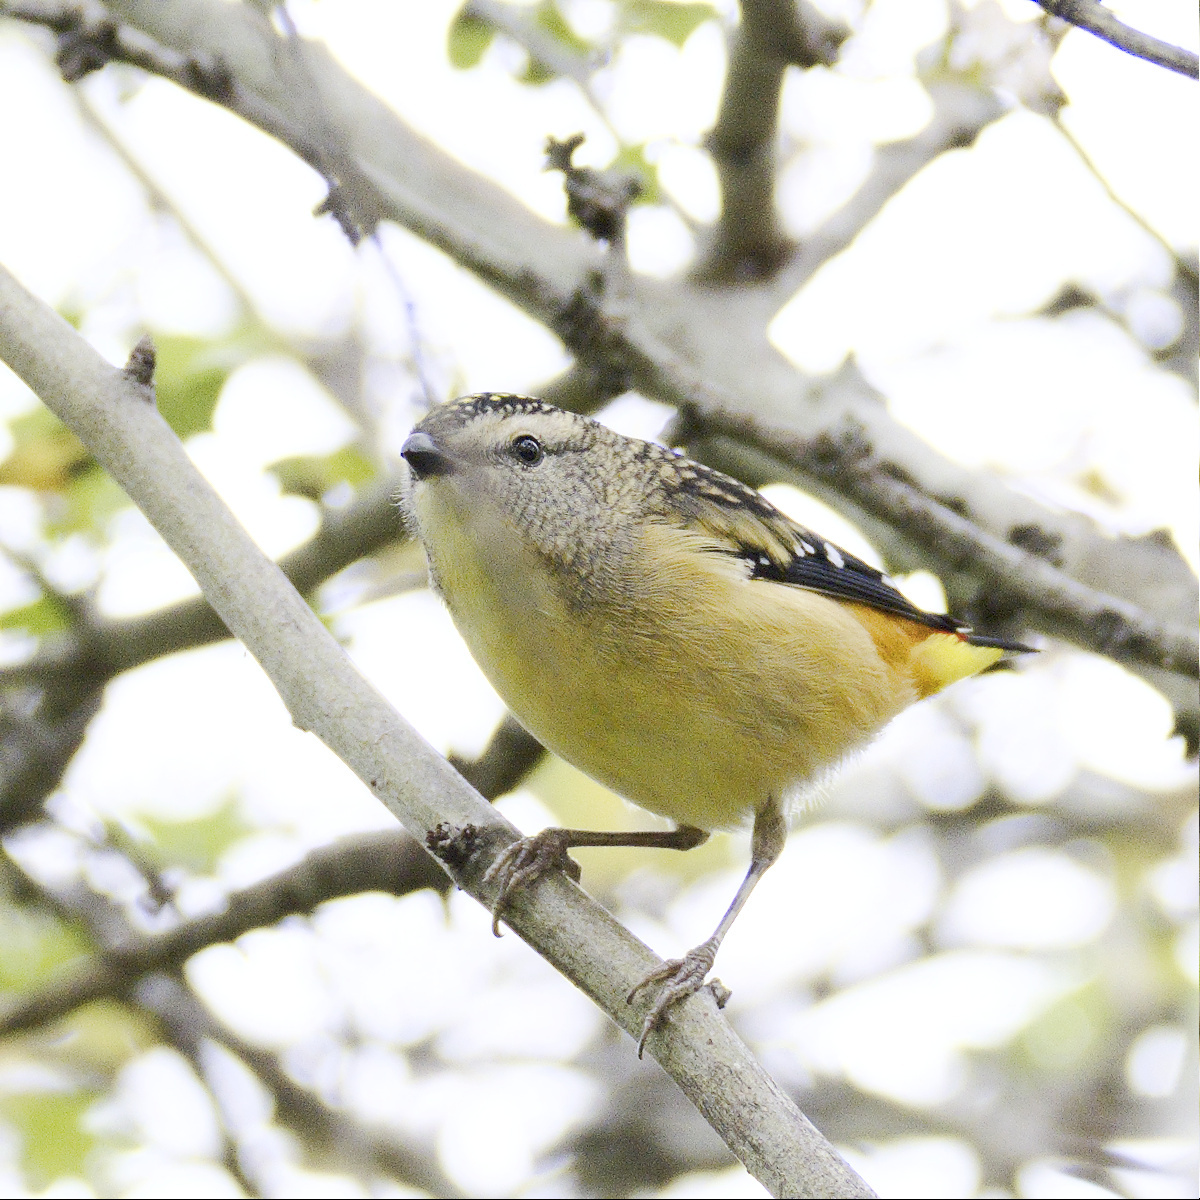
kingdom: Animalia
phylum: Chordata
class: Aves
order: Passeriformes
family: Pardalotidae
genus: Pardalotus
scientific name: Pardalotus punctatus
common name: Spotted pardalote
